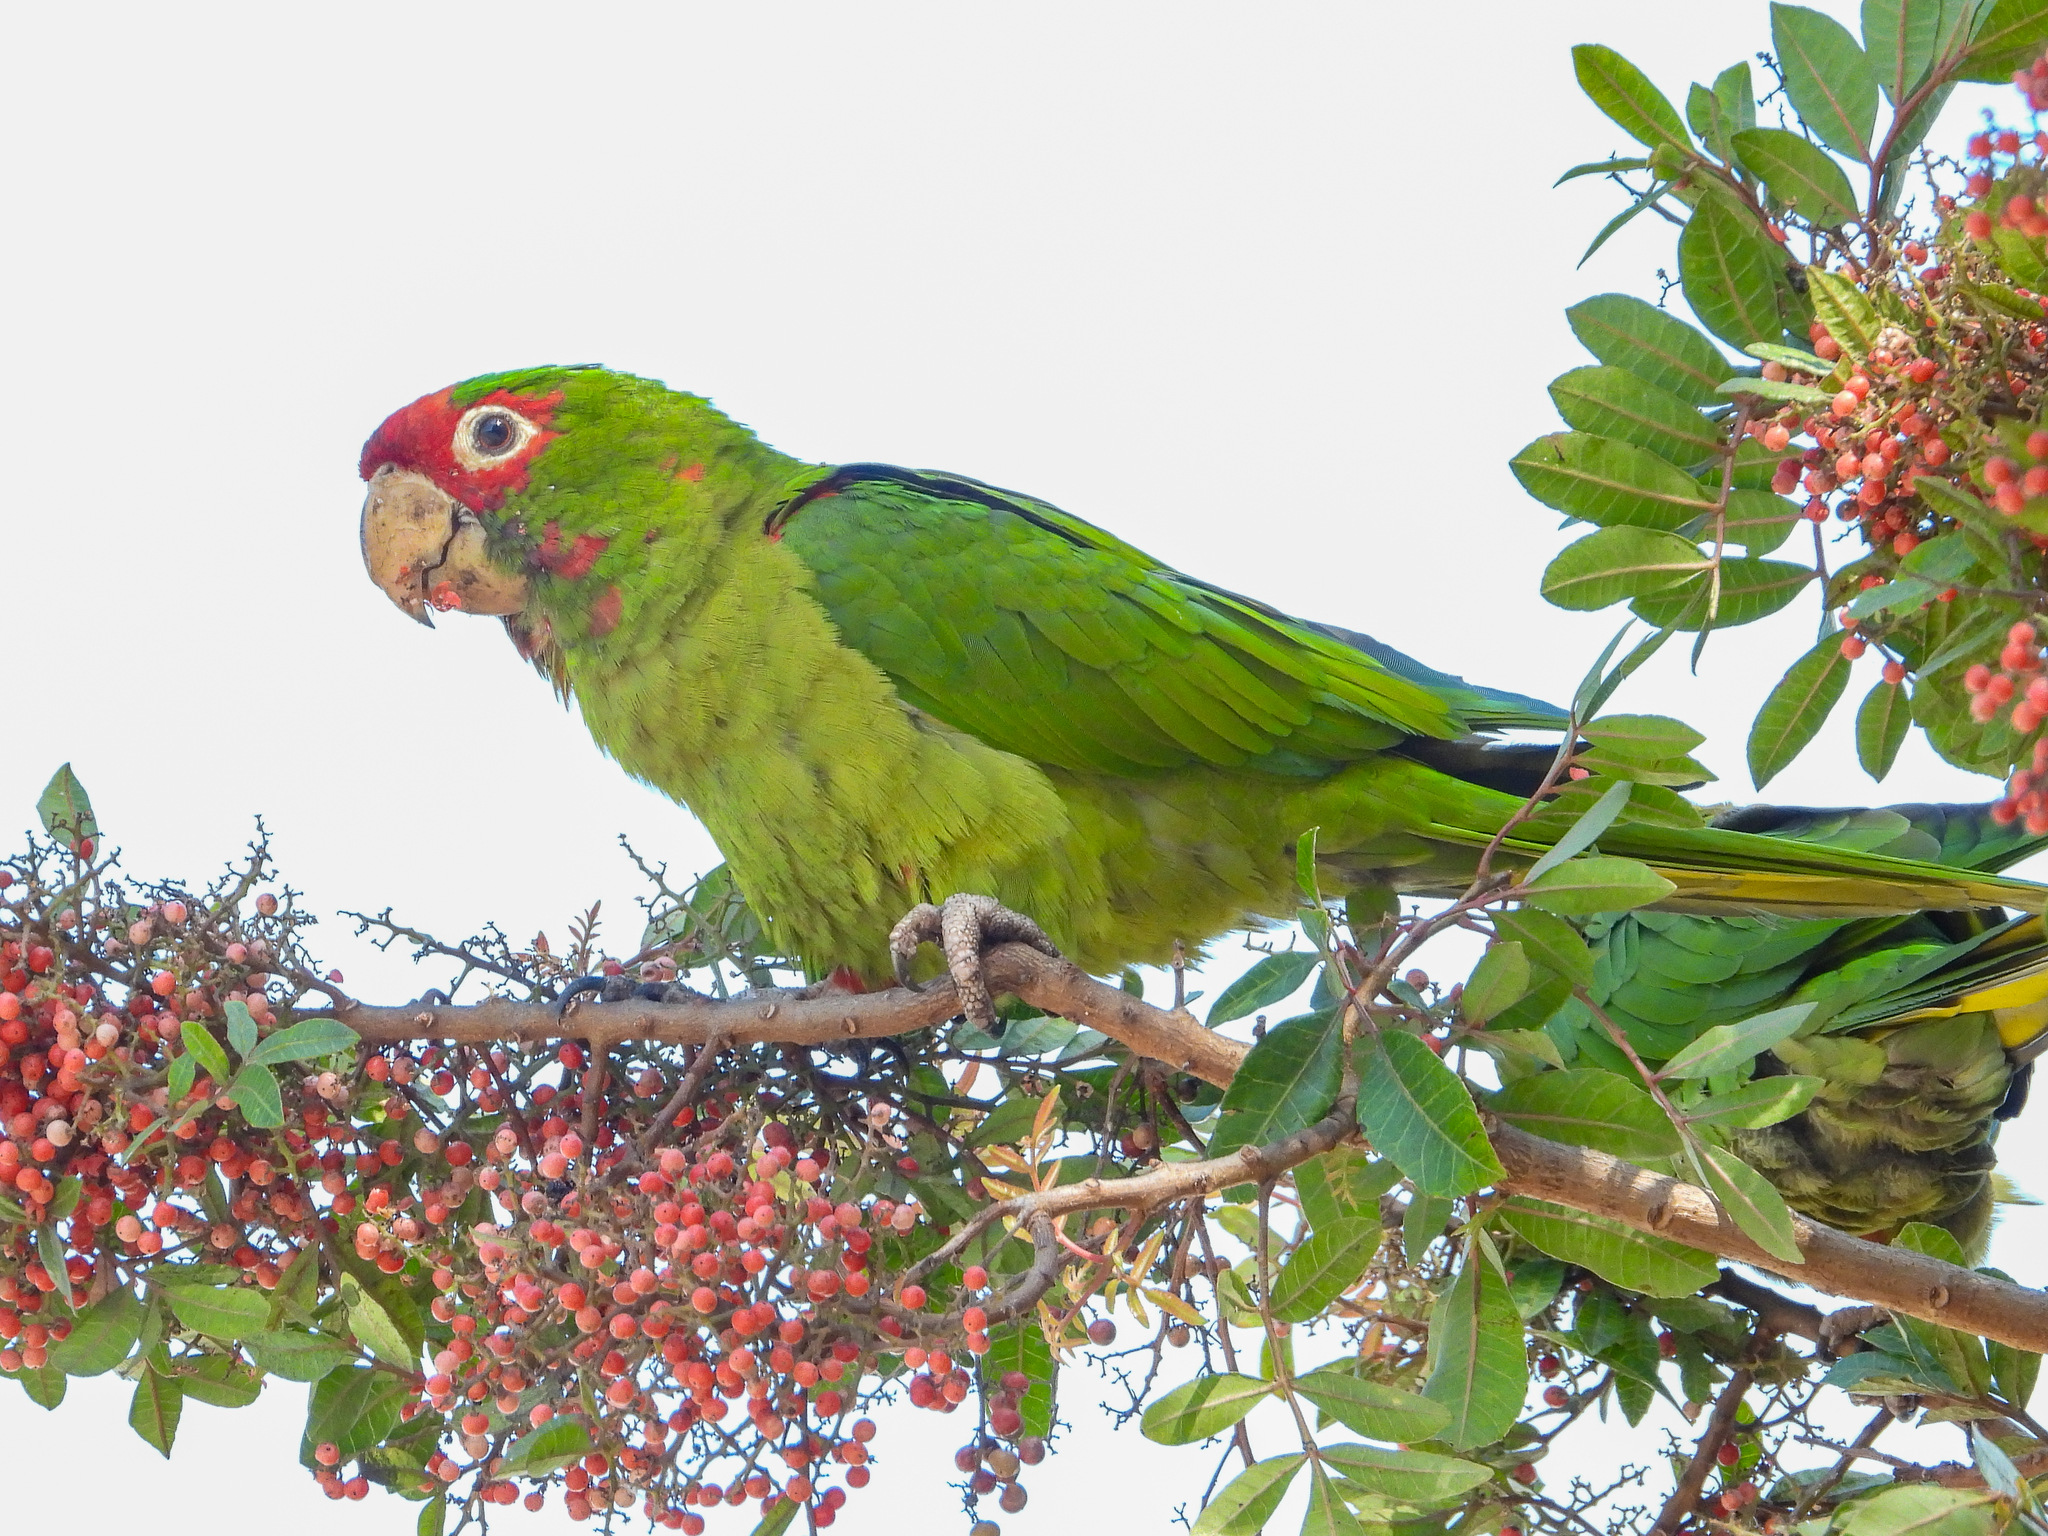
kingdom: Animalia
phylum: Chordata
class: Aves
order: Psittaciformes
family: Psittacidae
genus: Aratinga
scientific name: Aratinga mitrata
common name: Mitred parakeet
